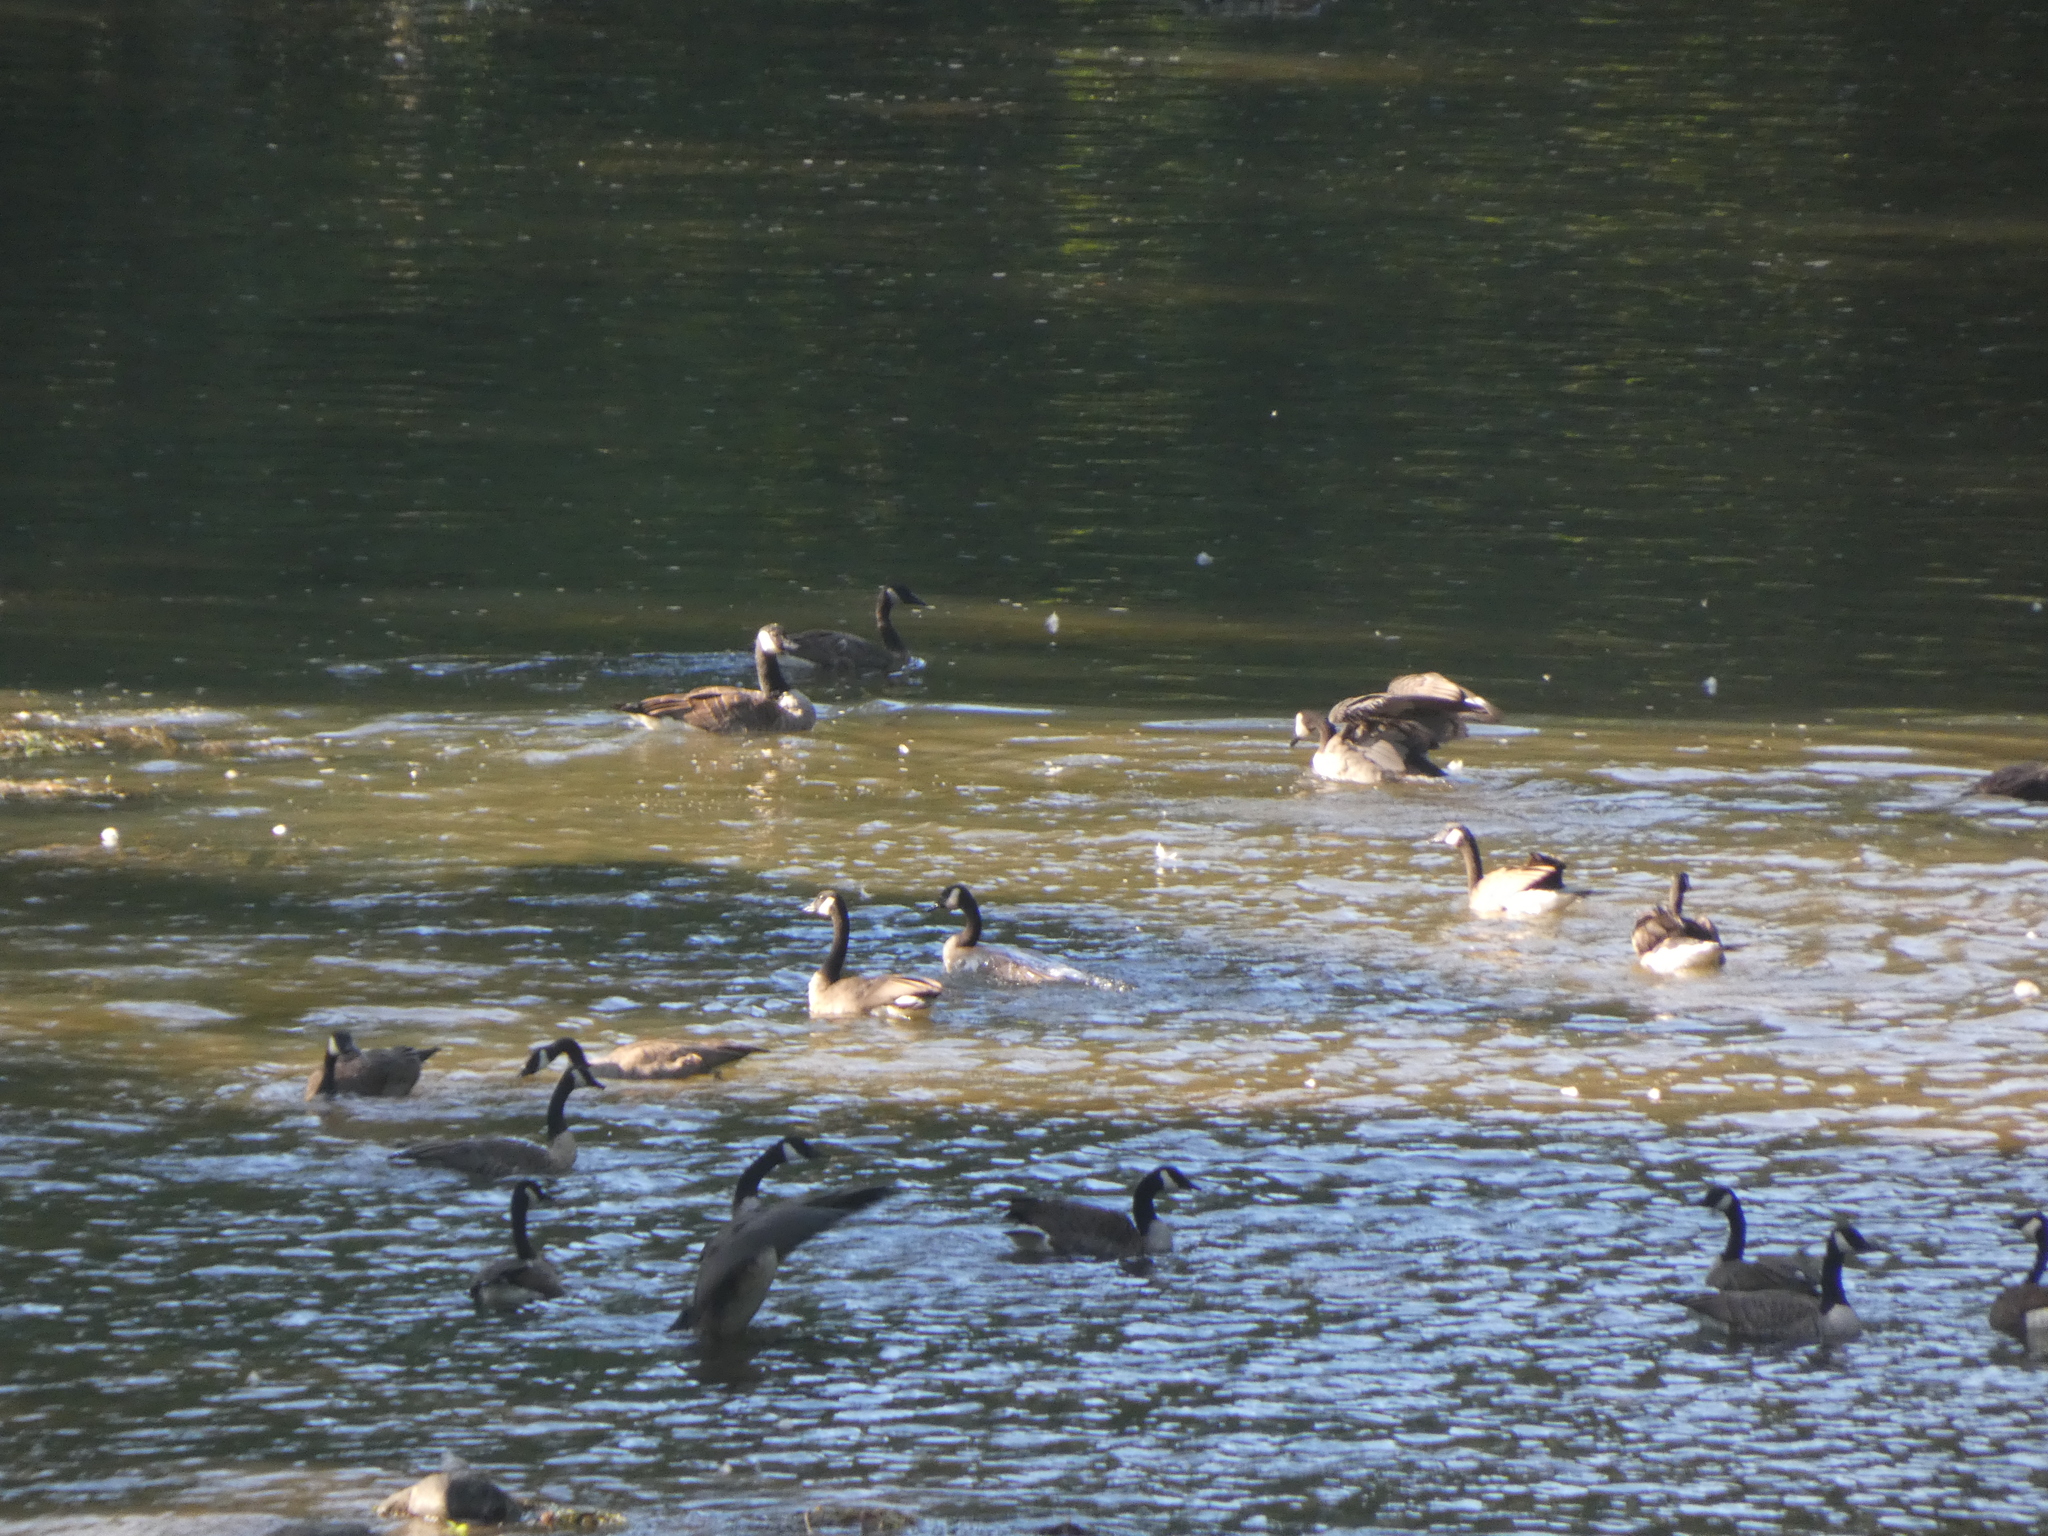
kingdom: Animalia
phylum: Chordata
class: Aves
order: Anseriformes
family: Anatidae
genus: Branta
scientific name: Branta canadensis
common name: Canada goose
